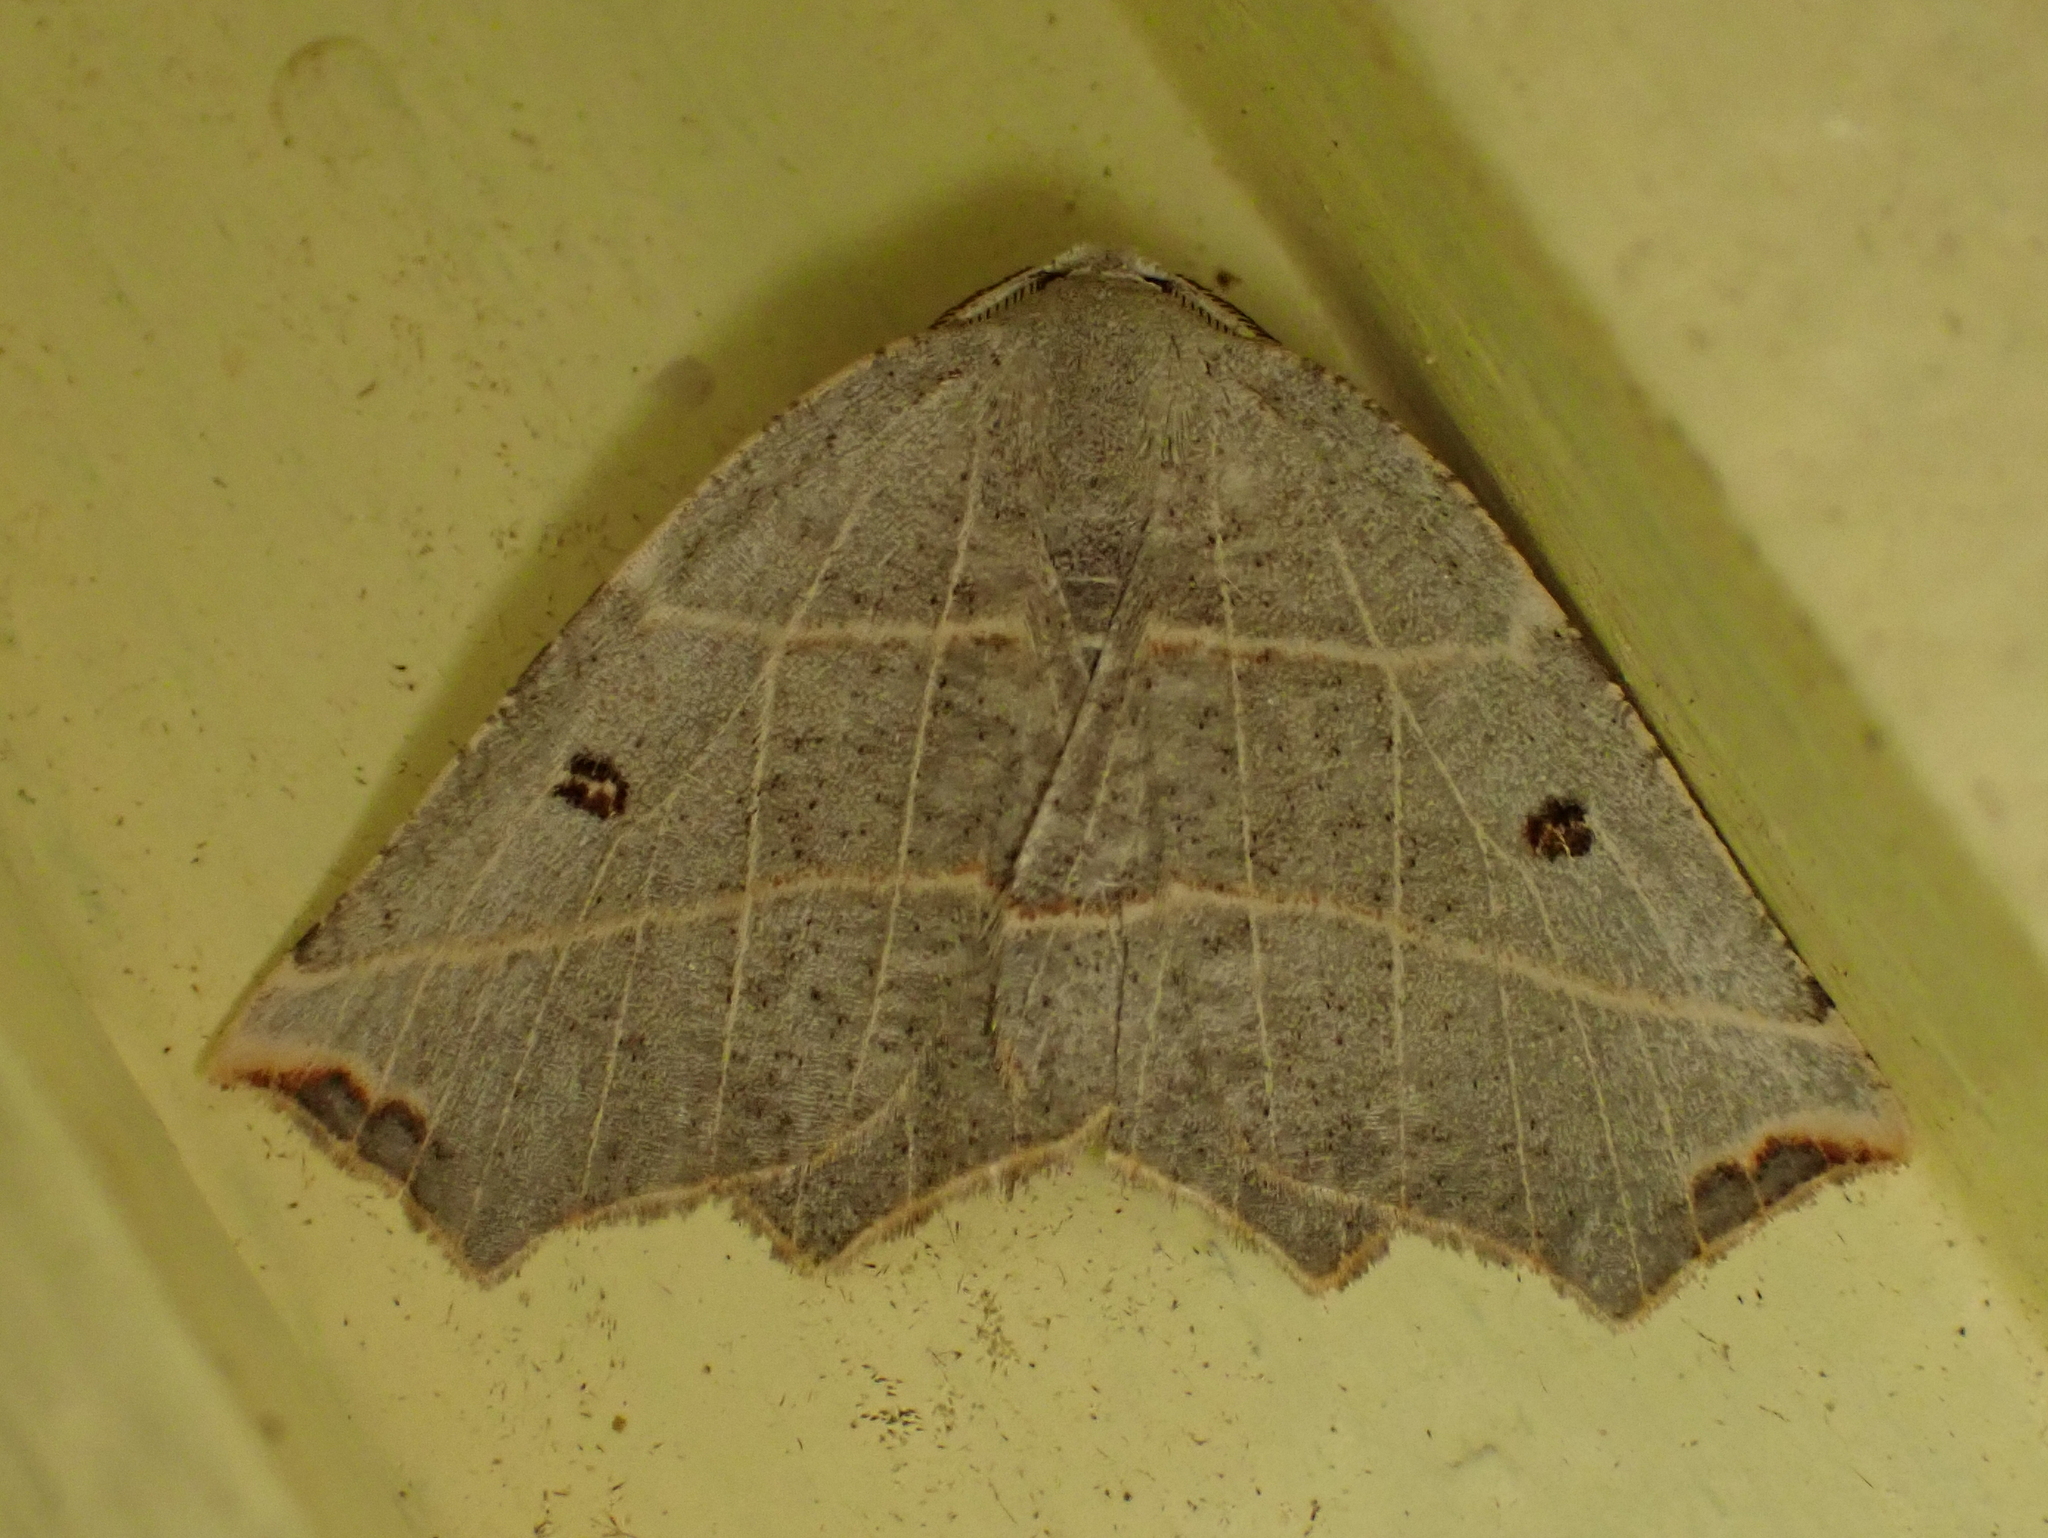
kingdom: Animalia
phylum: Arthropoda
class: Insecta
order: Lepidoptera
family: Geometridae
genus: Metanema
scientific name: Metanema inatomaria
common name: Pale metanema
